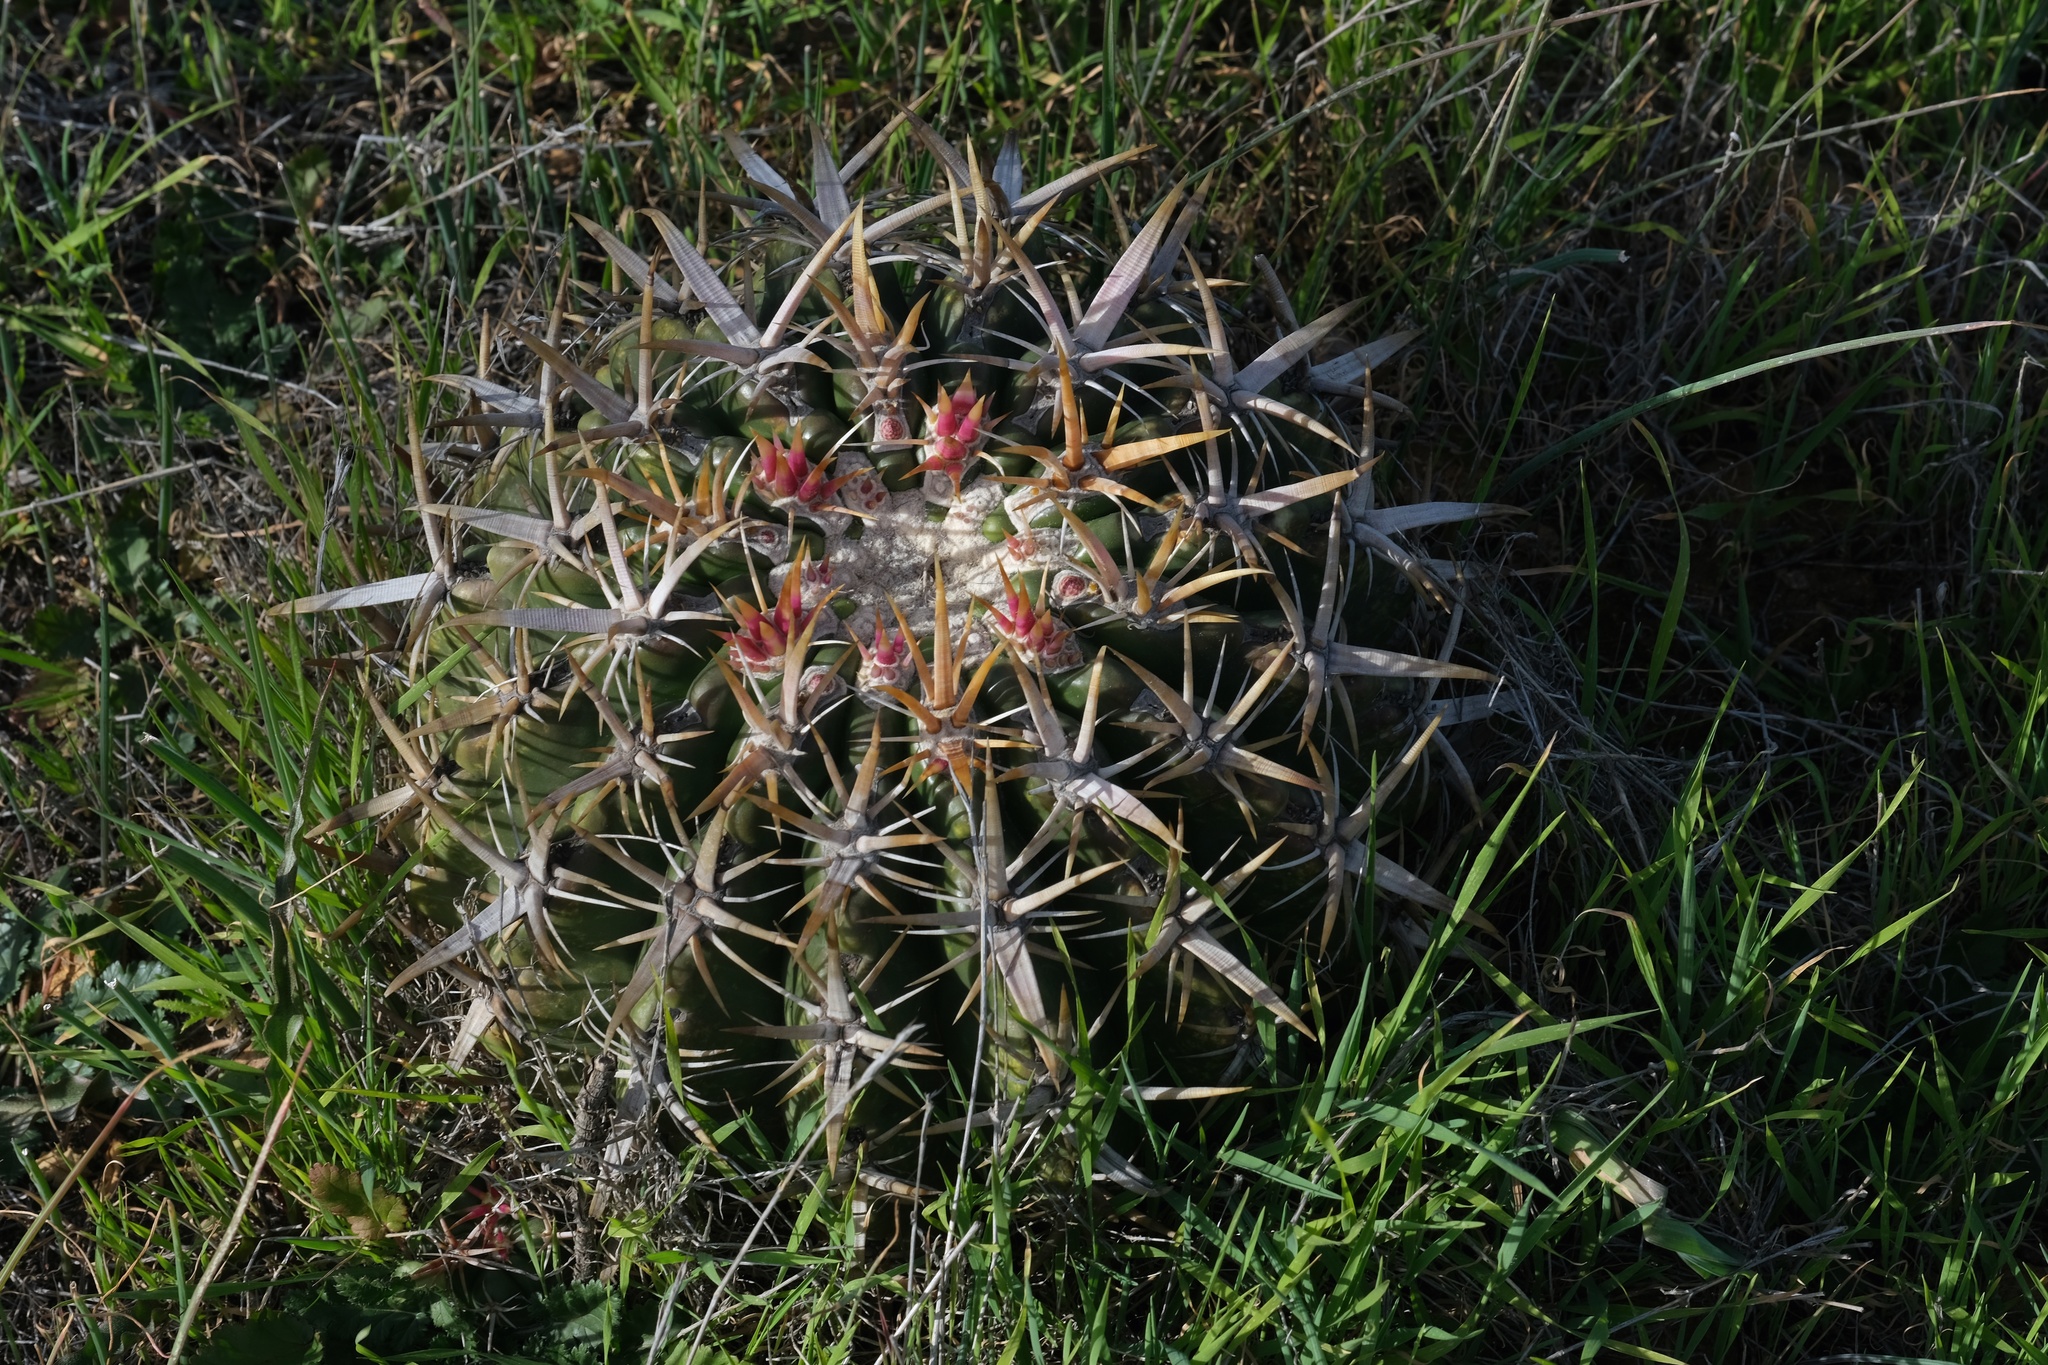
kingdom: Plantae
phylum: Tracheophyta
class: Magnoliopsida
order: Caryophyllales
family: Cactaceae
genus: Ferocactus
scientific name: Ferocactus viridescens
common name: San diego barrel cactus
